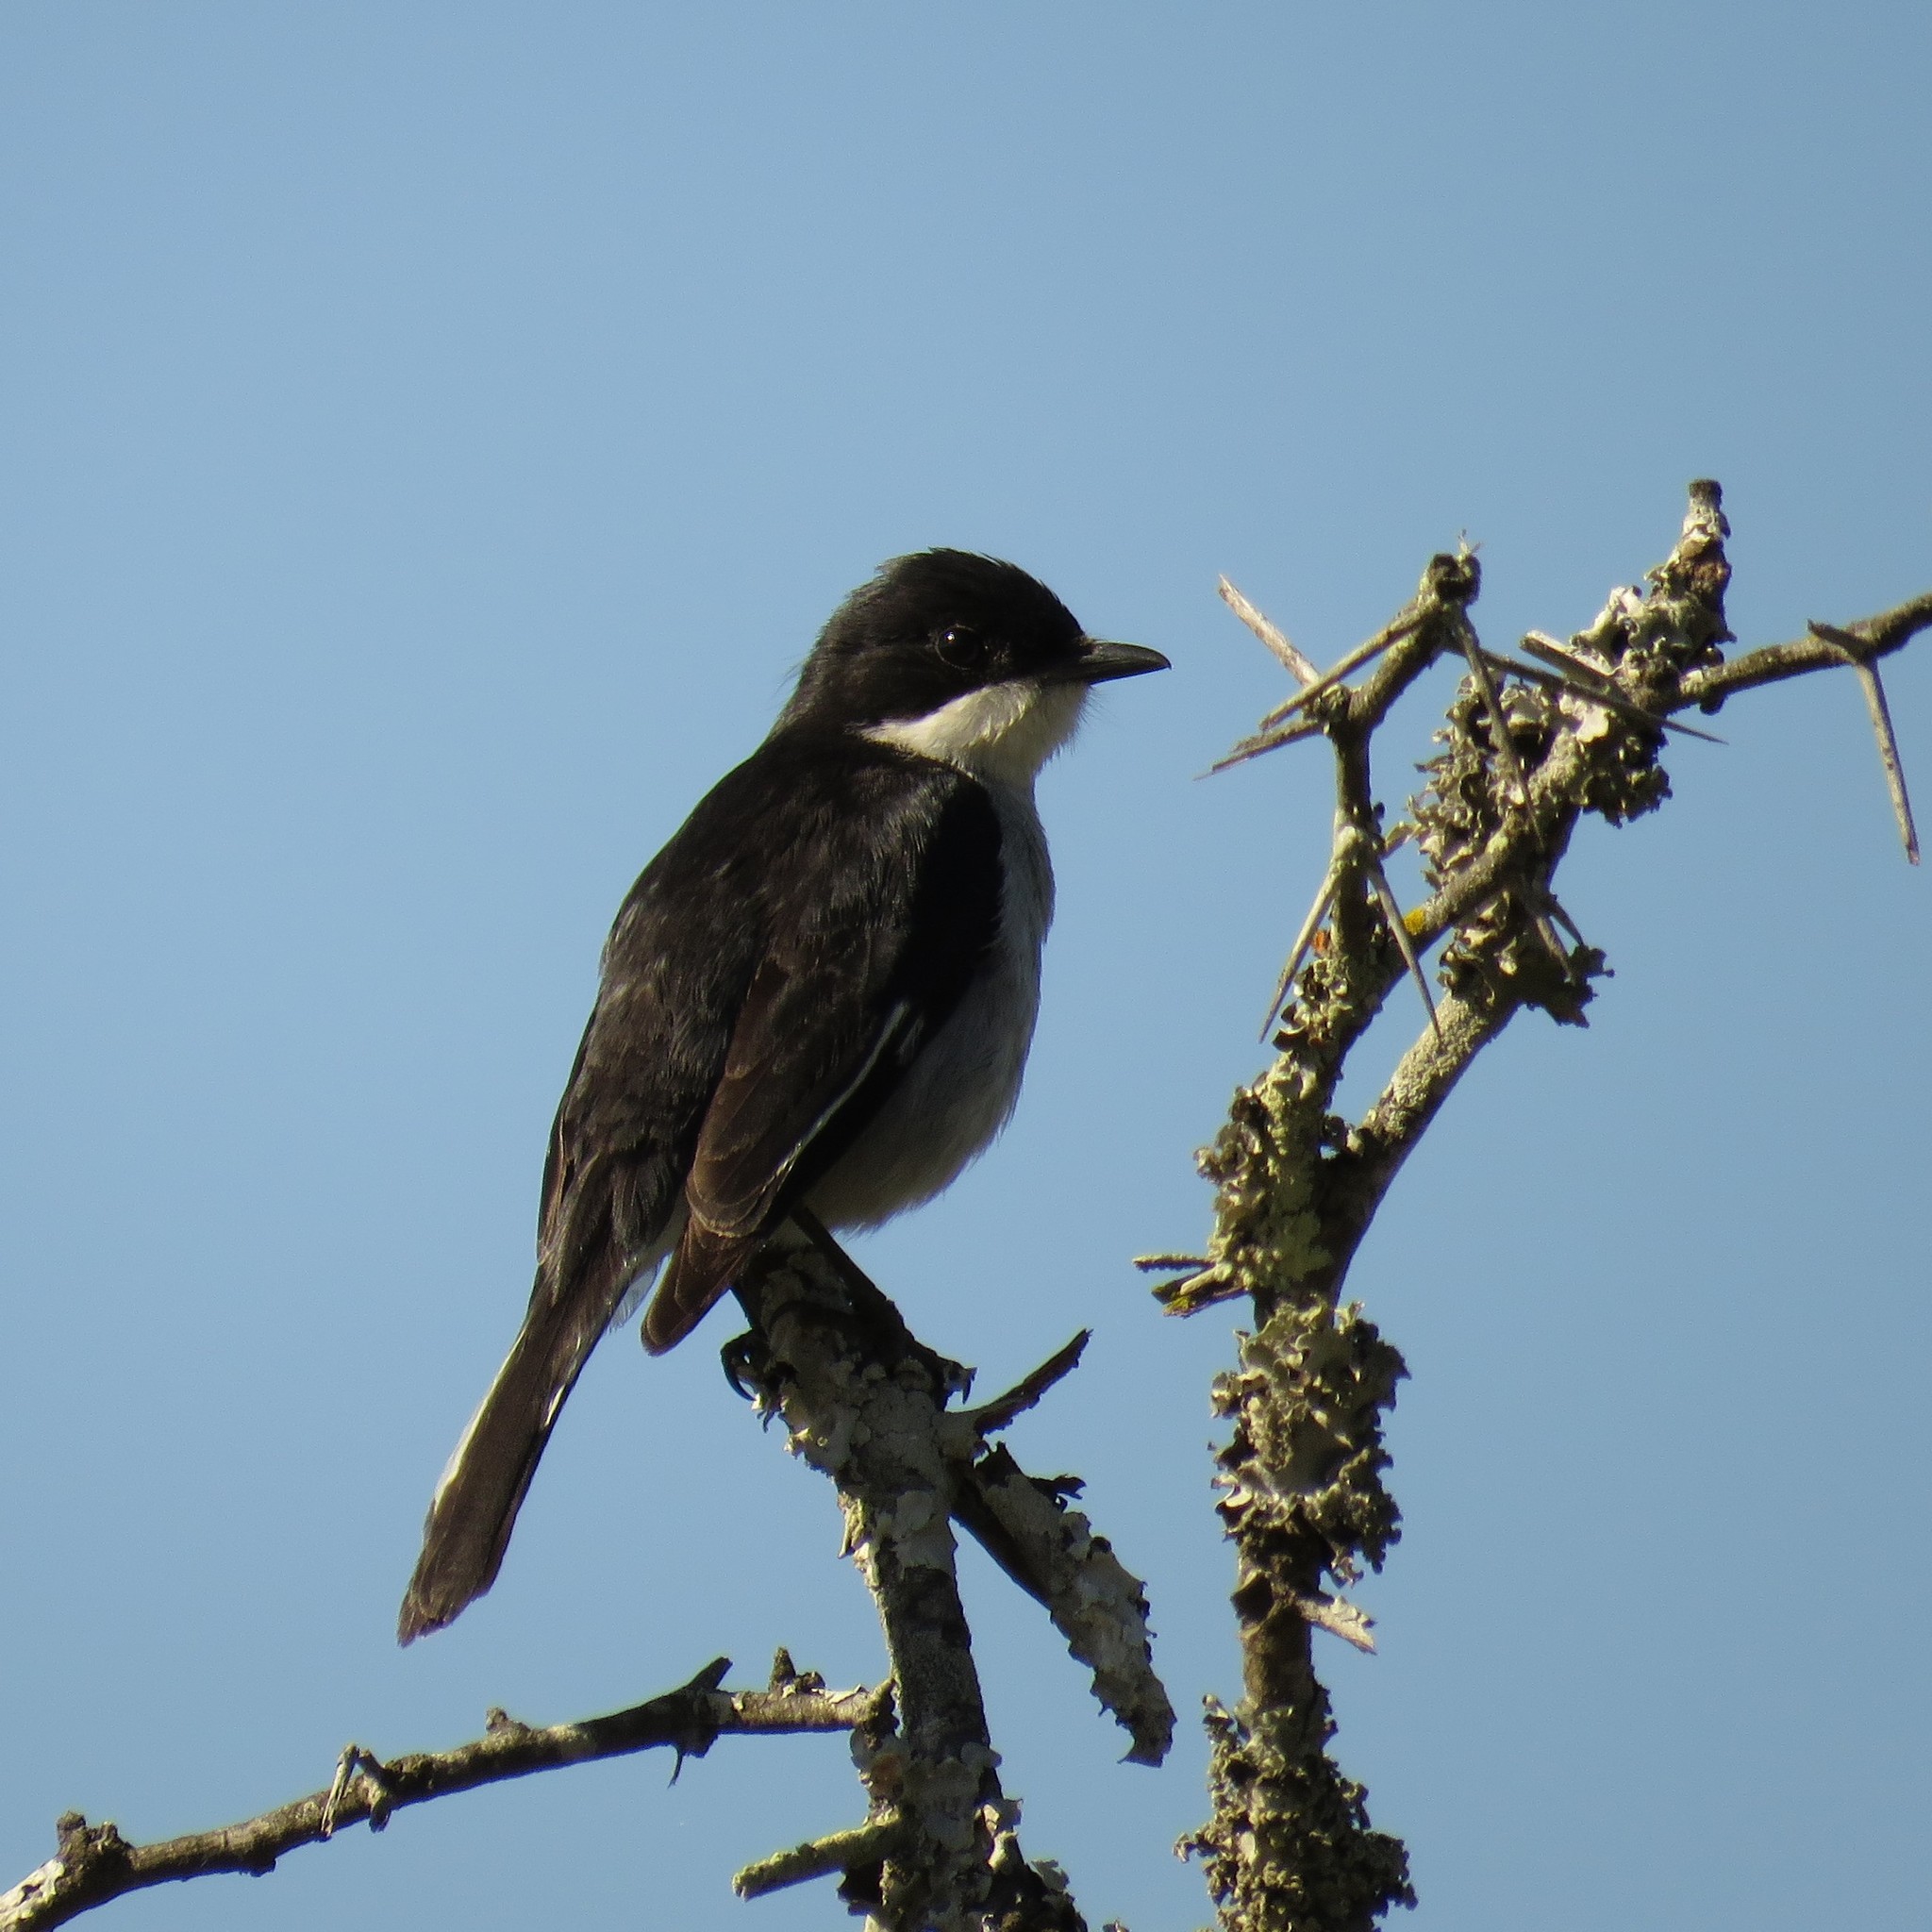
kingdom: Animalia
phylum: Chordata
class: Aves
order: Passeriformes
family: Muscicapidae
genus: Sigelus
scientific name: Sigelus silens
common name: Fiscal flycatcher
